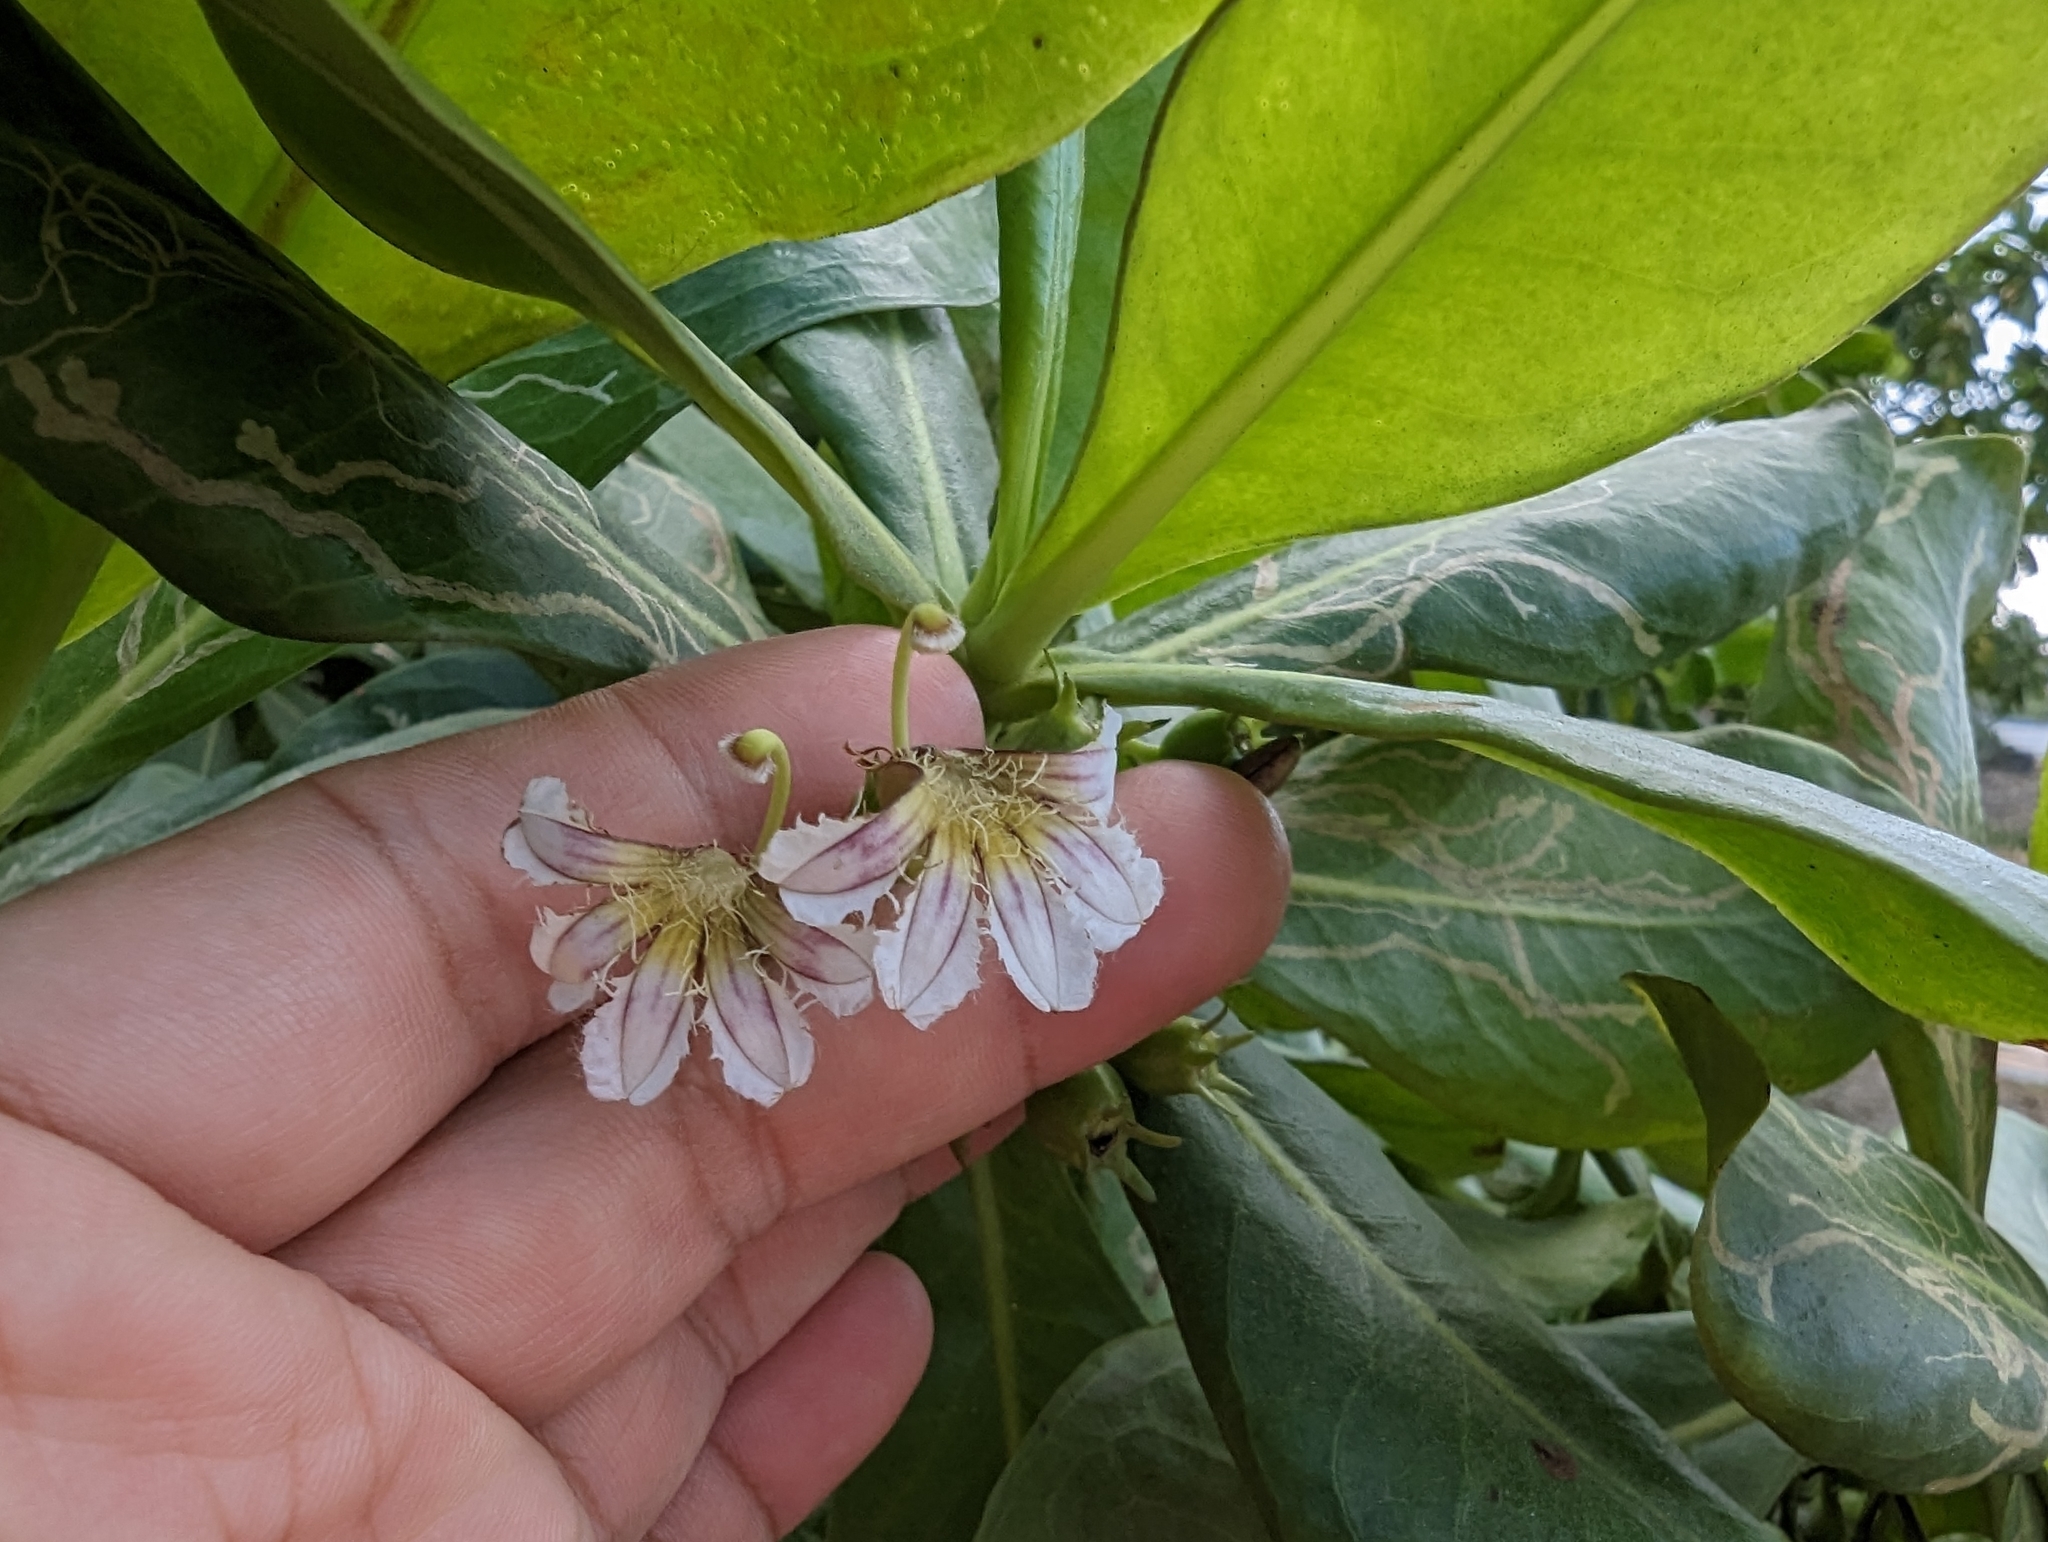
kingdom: Plantae
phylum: Tracheophyta
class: Magnoliopsida
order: Asterales
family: Goodeniaceae
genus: Scaevola
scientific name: Scaevola taccada
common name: Sea lettucetree
